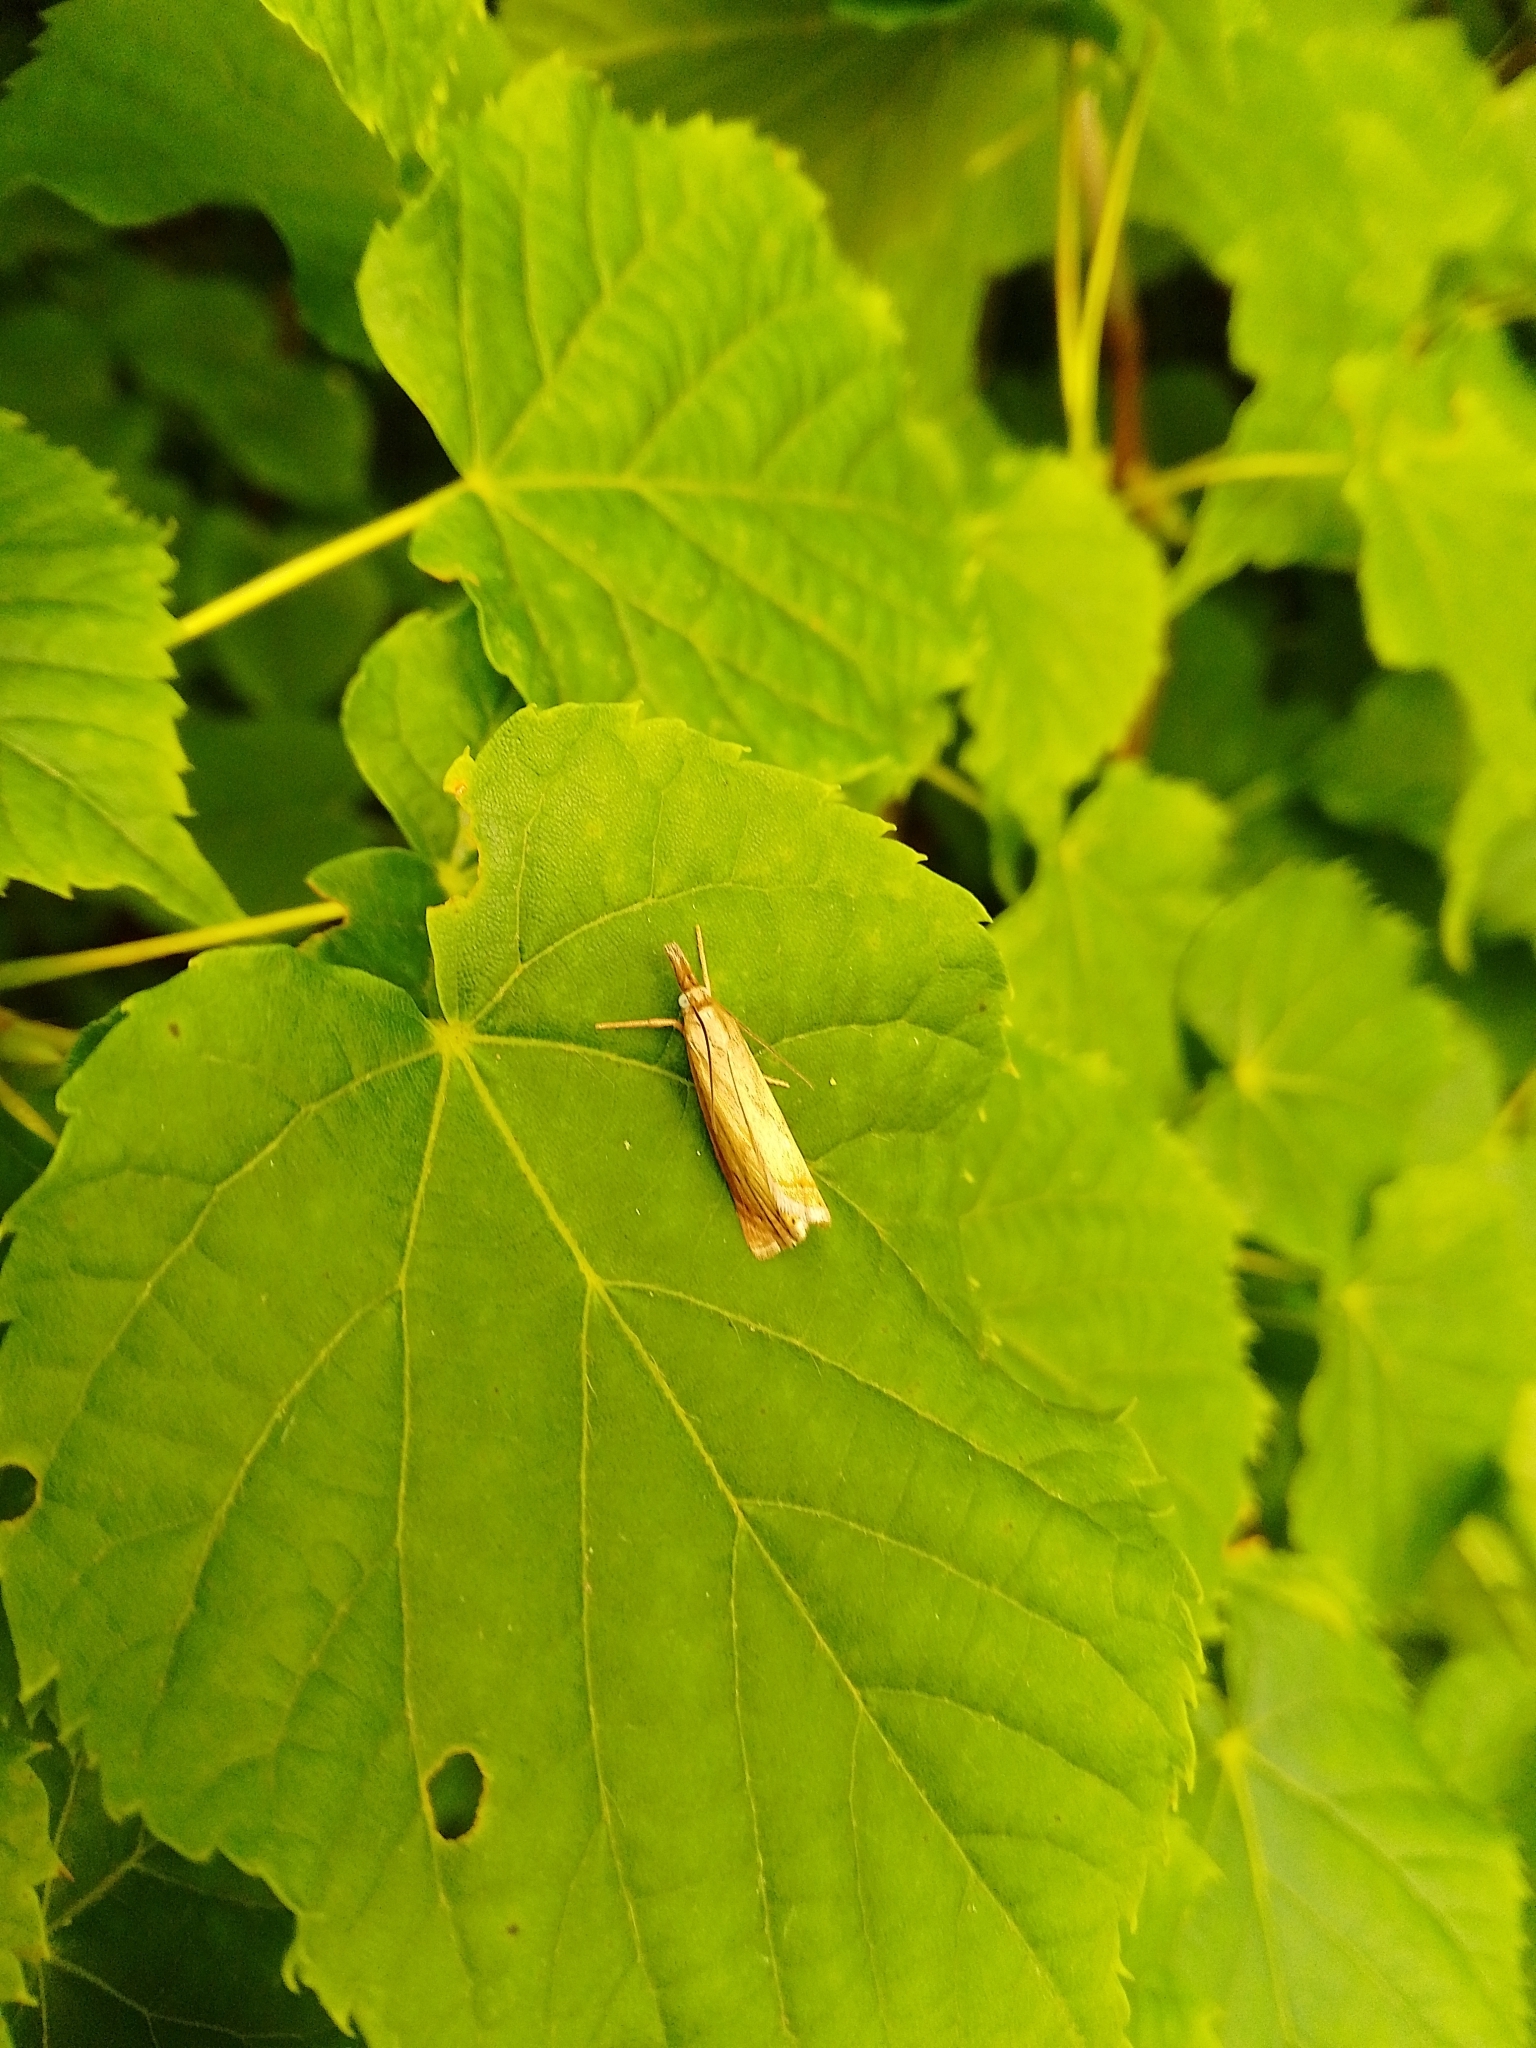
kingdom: Animalia
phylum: Arthropoda
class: Insecta
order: Lepidoptera
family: Crambidae
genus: Chrysoteuchia
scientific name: Chrysoteuchia culmella
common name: Garden grass-veneer
